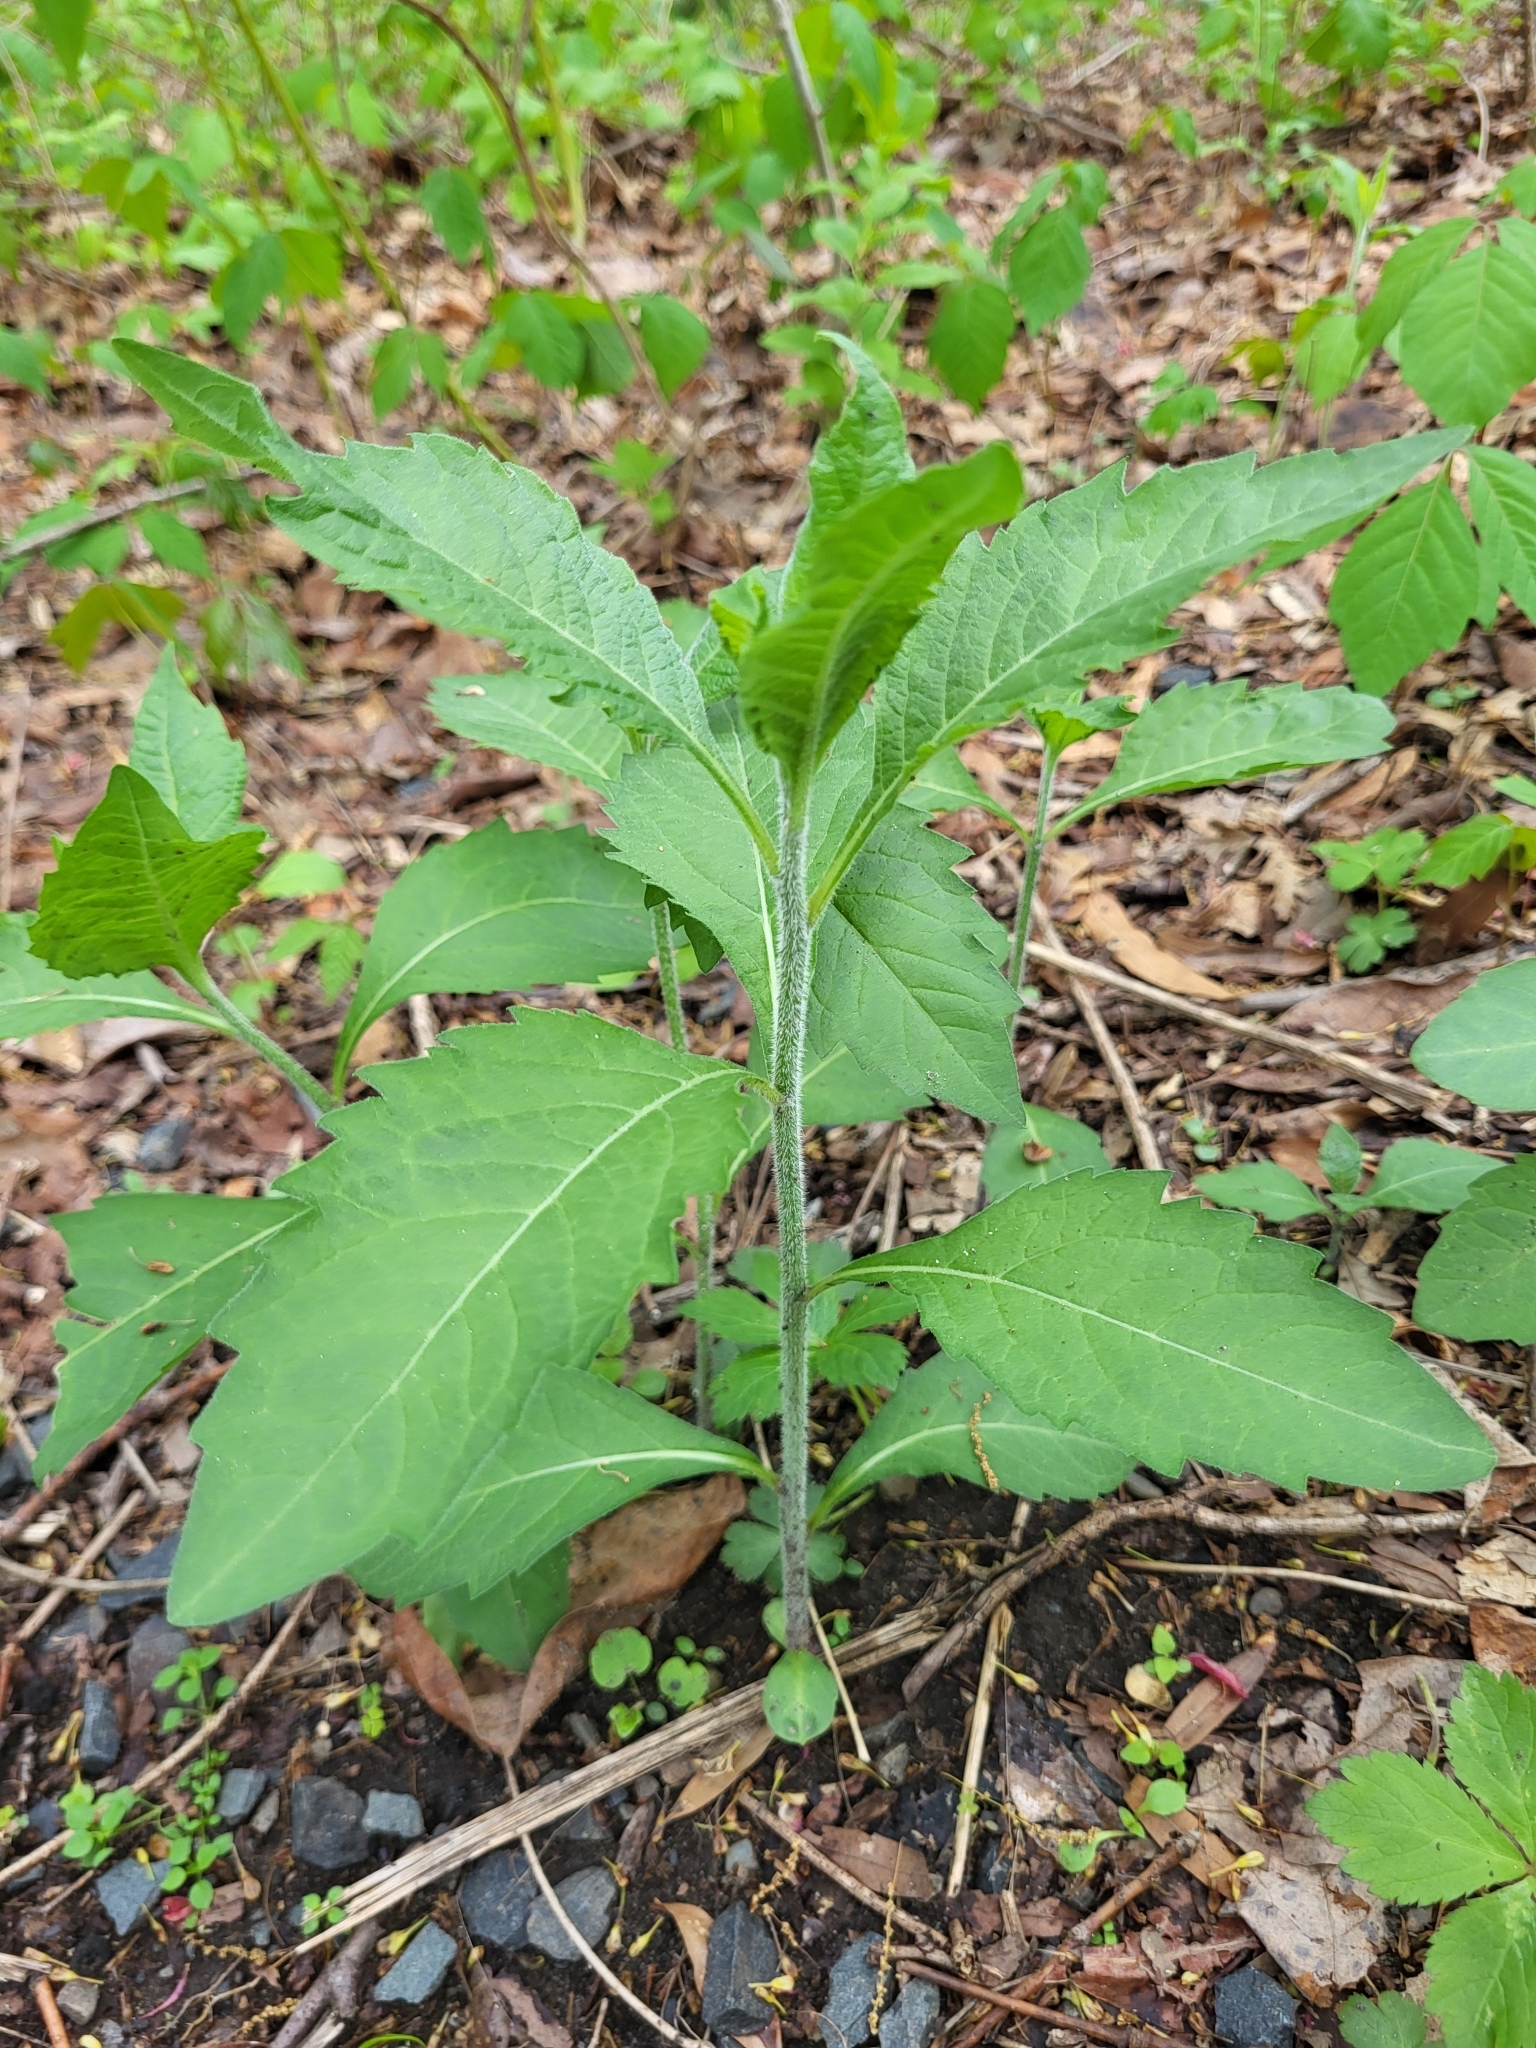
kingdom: Plantae
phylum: Tracheophyta
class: Magnoliopsida
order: Asterales
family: Asteraceae
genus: Verbesina
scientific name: Verbesina alternifolia
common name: Wingstem
